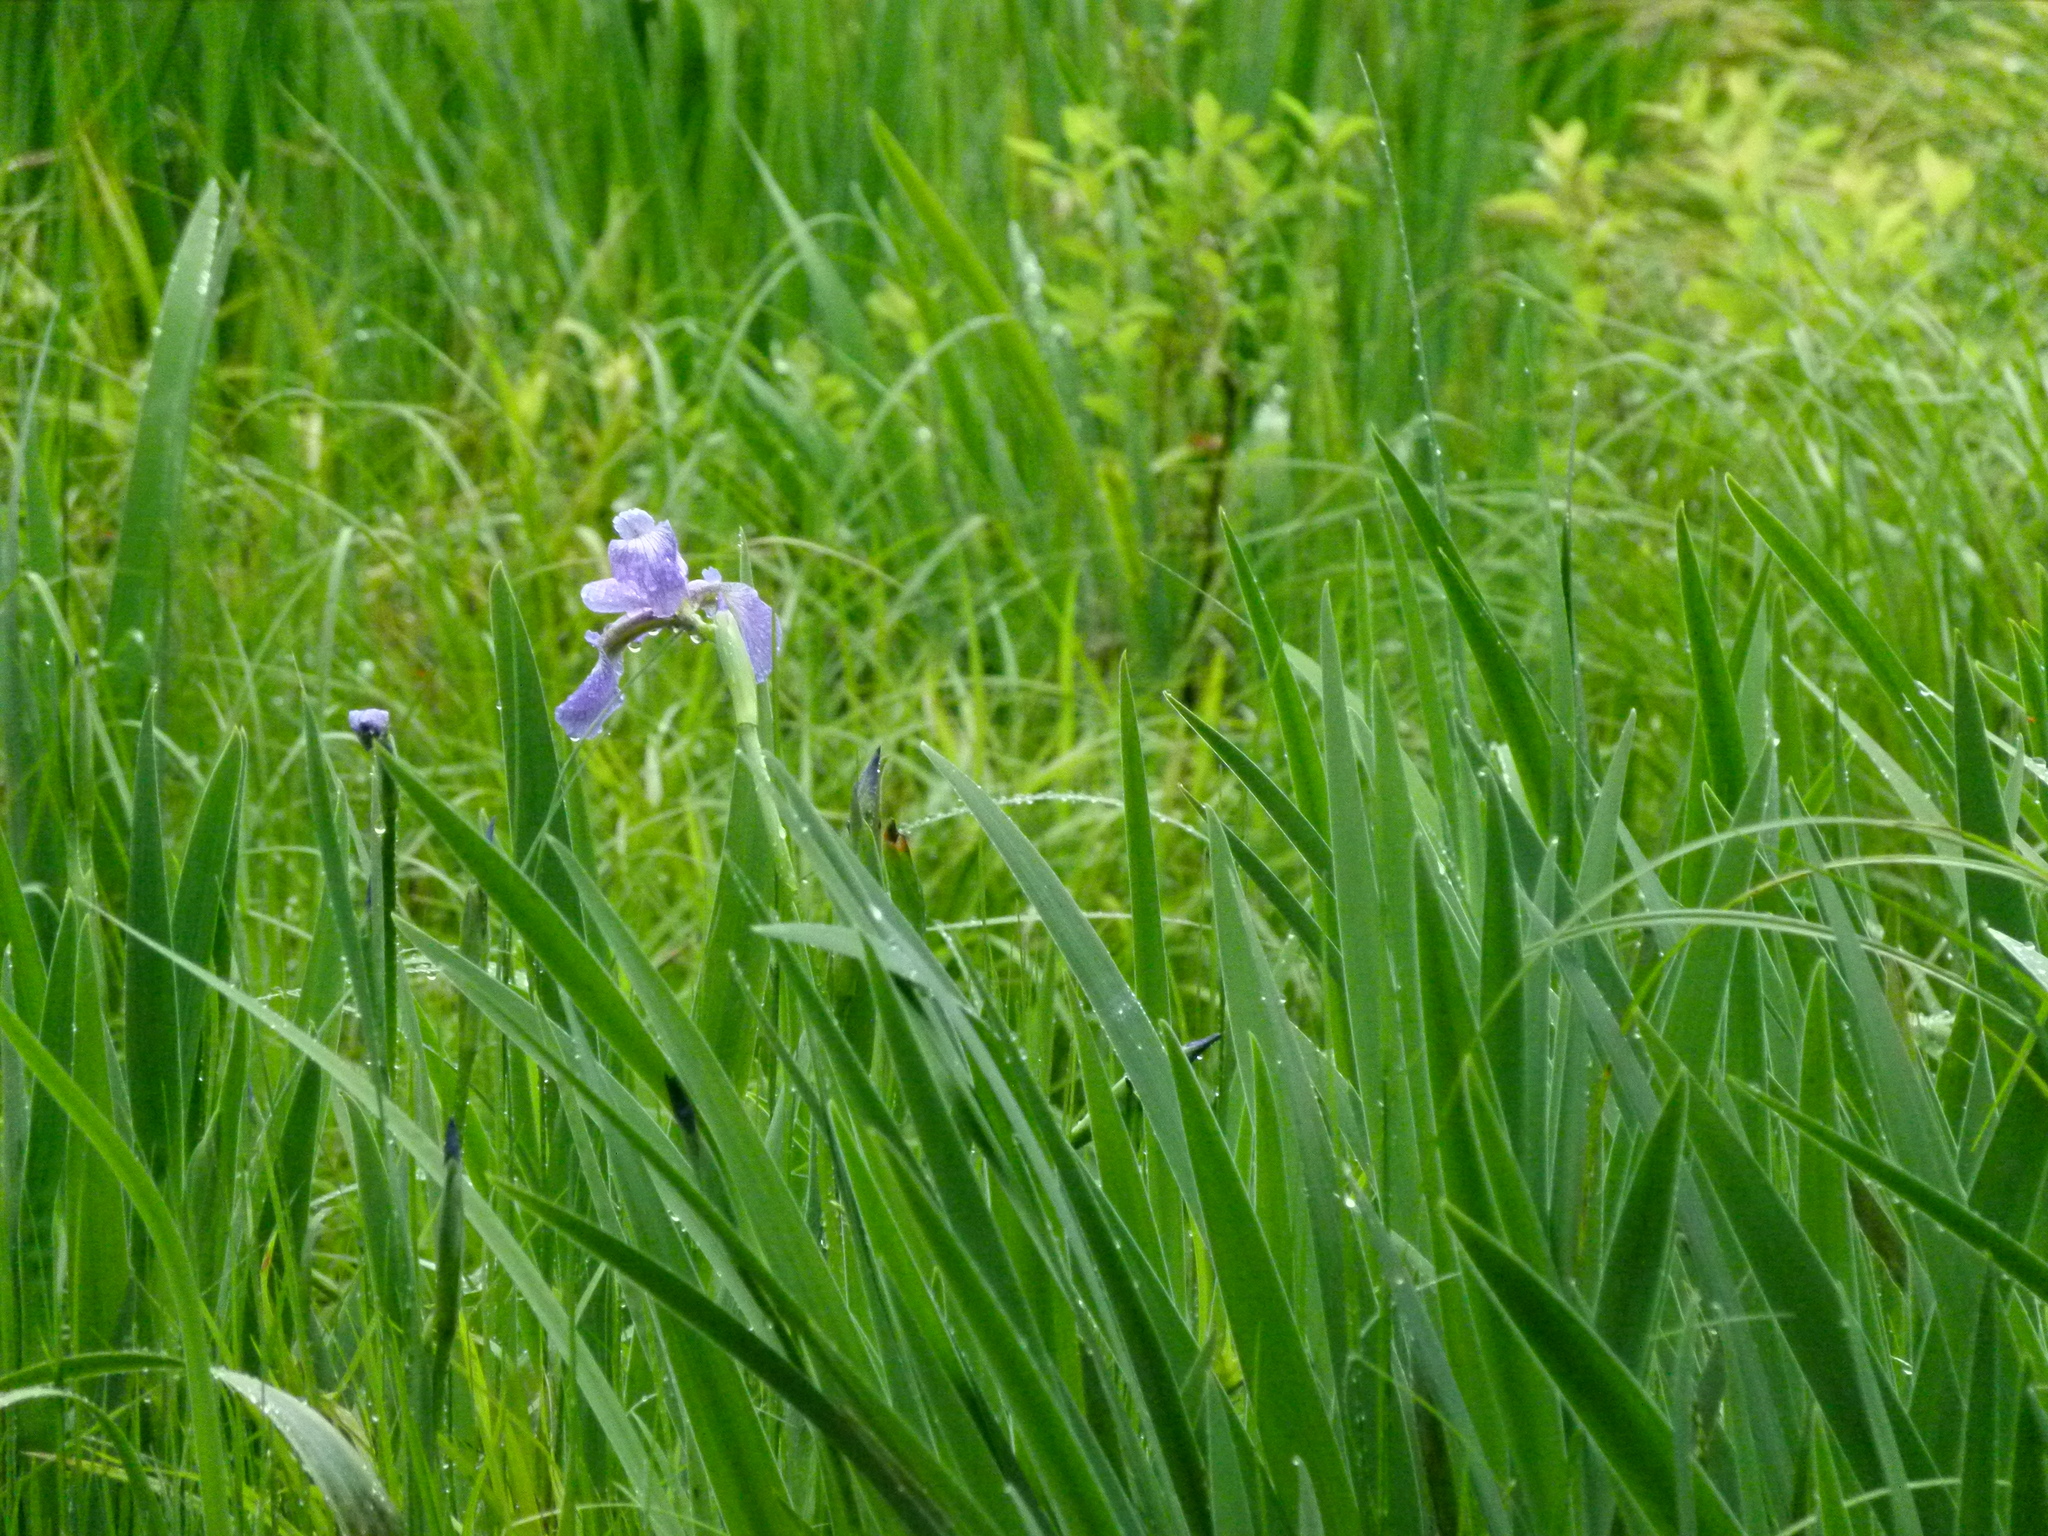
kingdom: Plantae
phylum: Tracheophyta
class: Liliopsida
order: Asparagales
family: Iridaceae
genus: Iris
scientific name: Iris versicolor
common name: Purple iris
